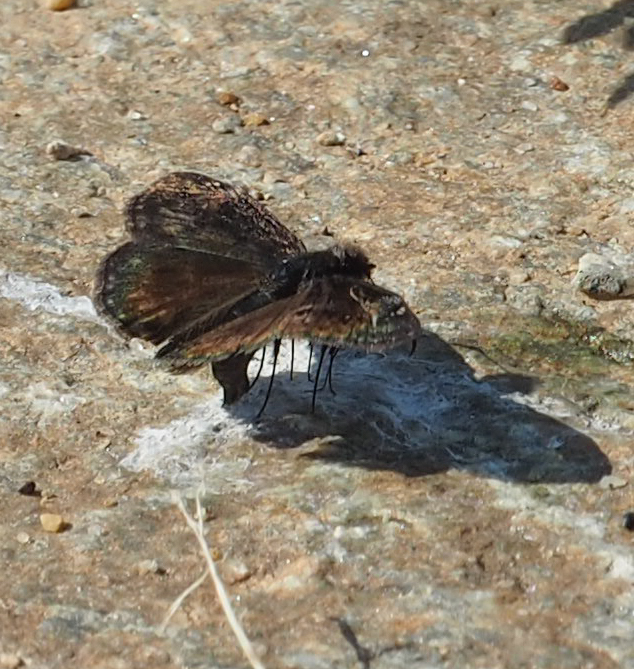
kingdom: Animalia
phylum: Arthropoda
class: Insecta
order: Lepidoptera
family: Hesperiidae
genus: Erynnis
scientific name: Erynnis baptisiae
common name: Wild indigo duskywing
